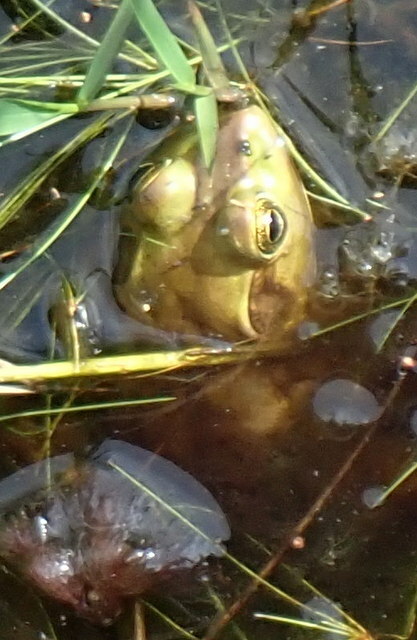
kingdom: Animalia
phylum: Chordata
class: Amphibia
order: Anura
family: Ranidae
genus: Lithobates
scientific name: Lithobates grylio
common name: Pig frog
